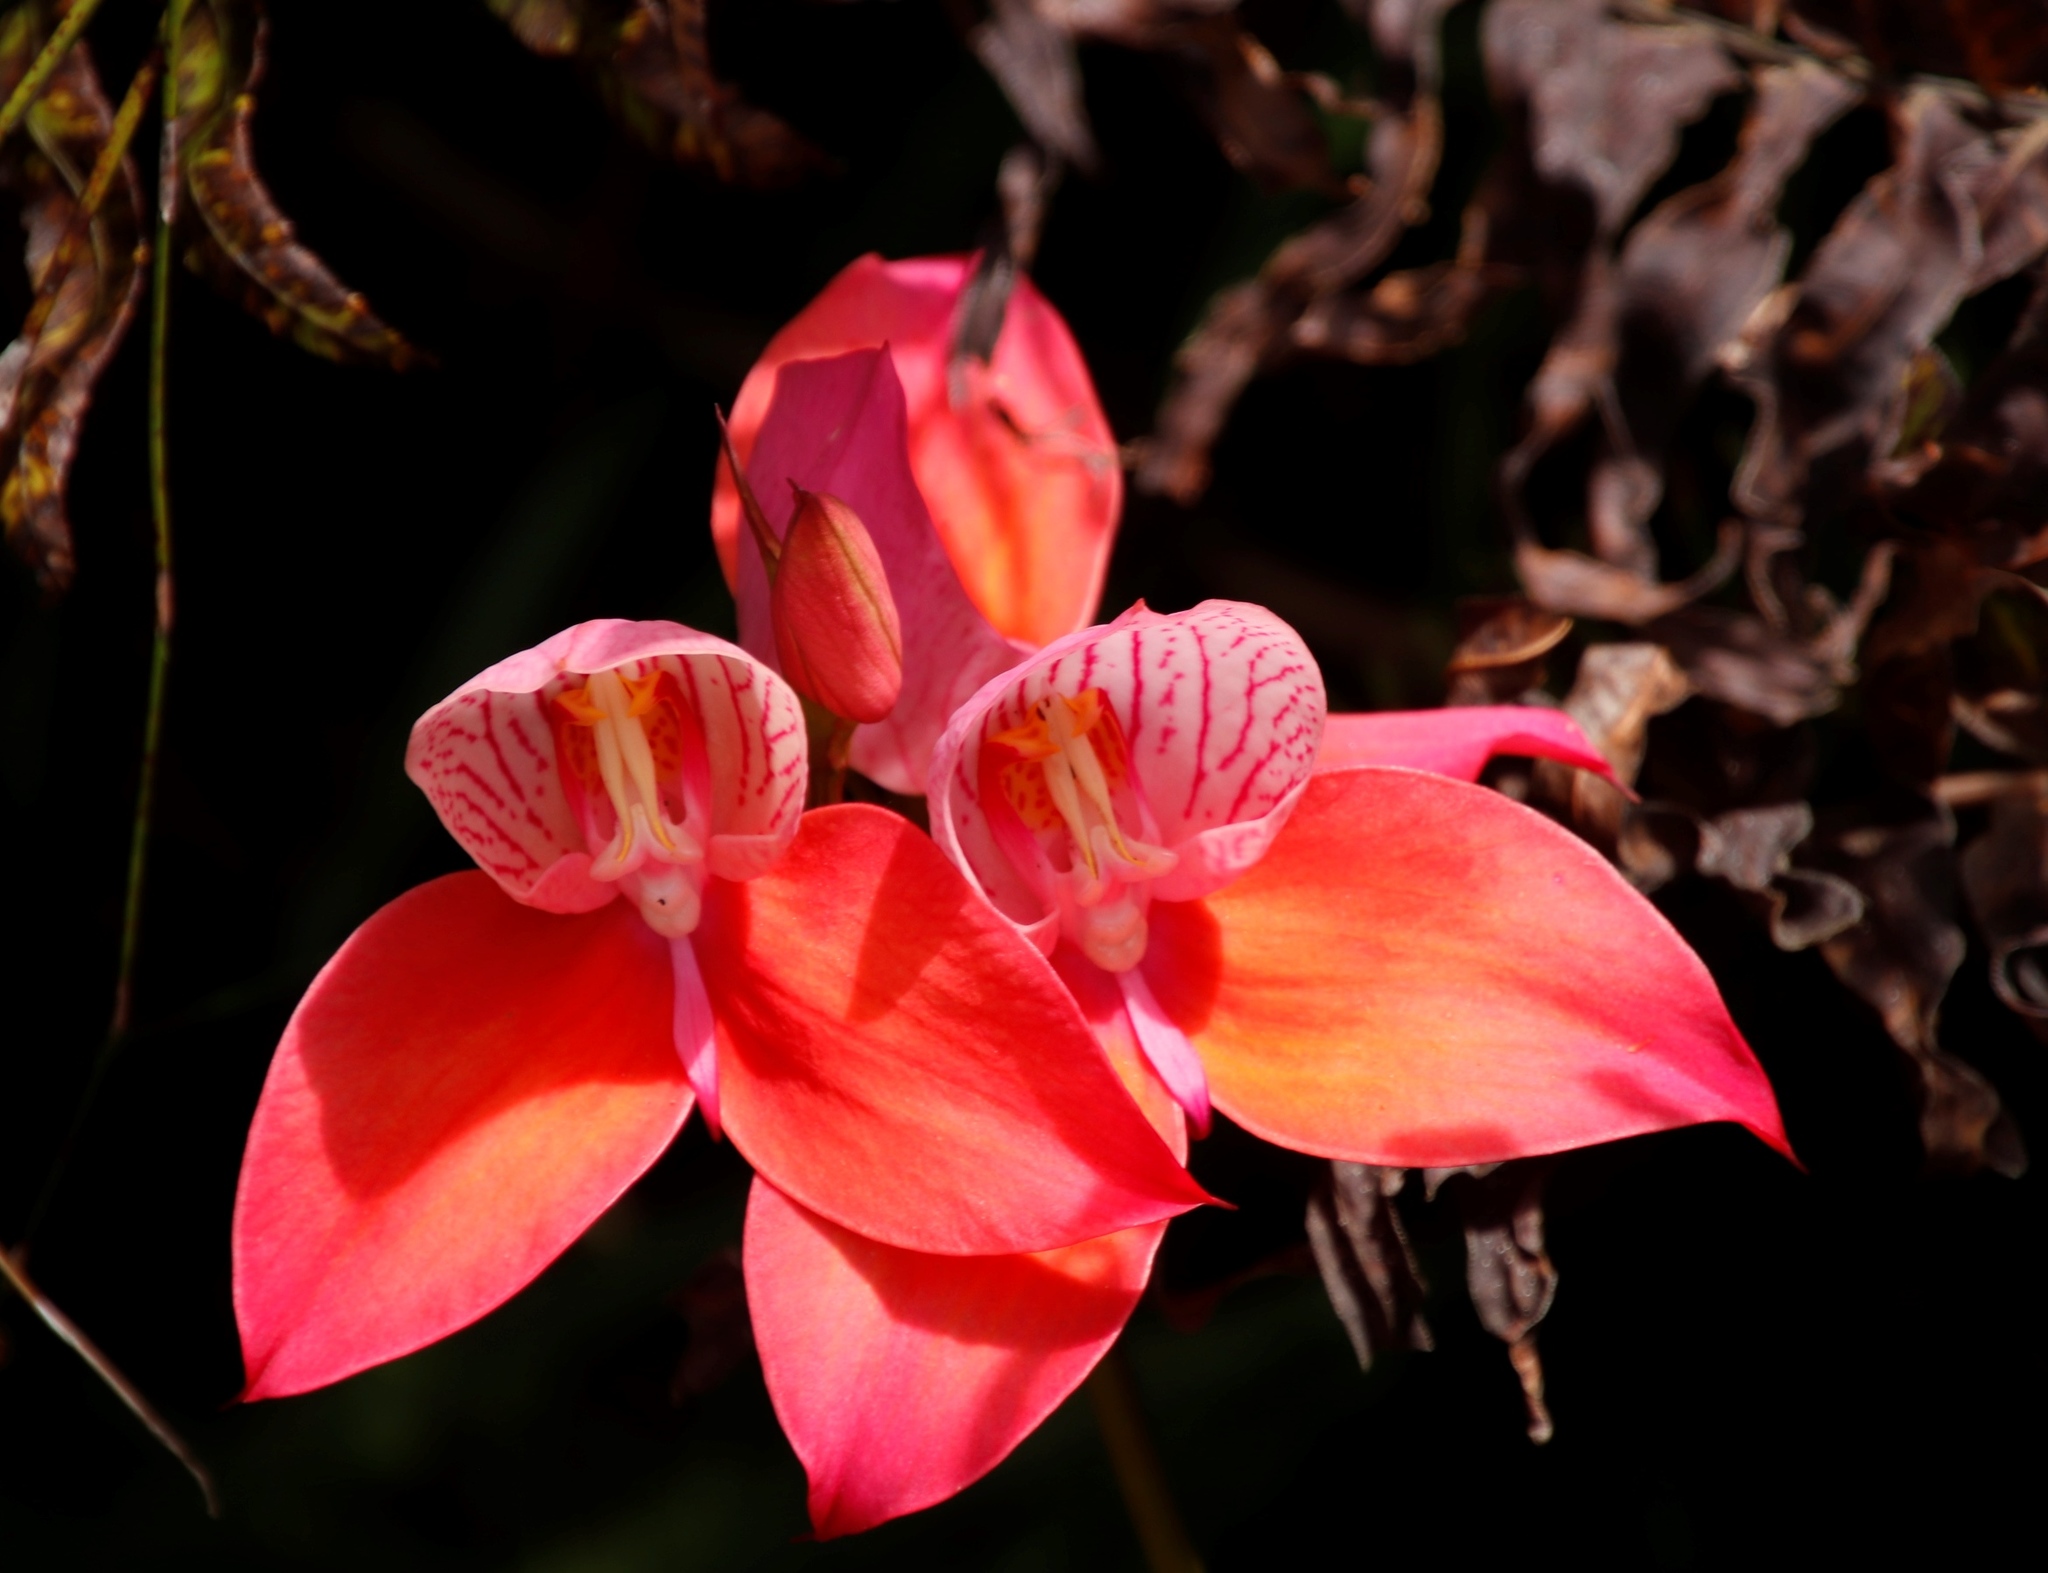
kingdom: Plantae
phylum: Tracheophyta
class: Liliopsida
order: Asparagales
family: Orchidaceae
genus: Disa
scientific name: Disa uniflora
